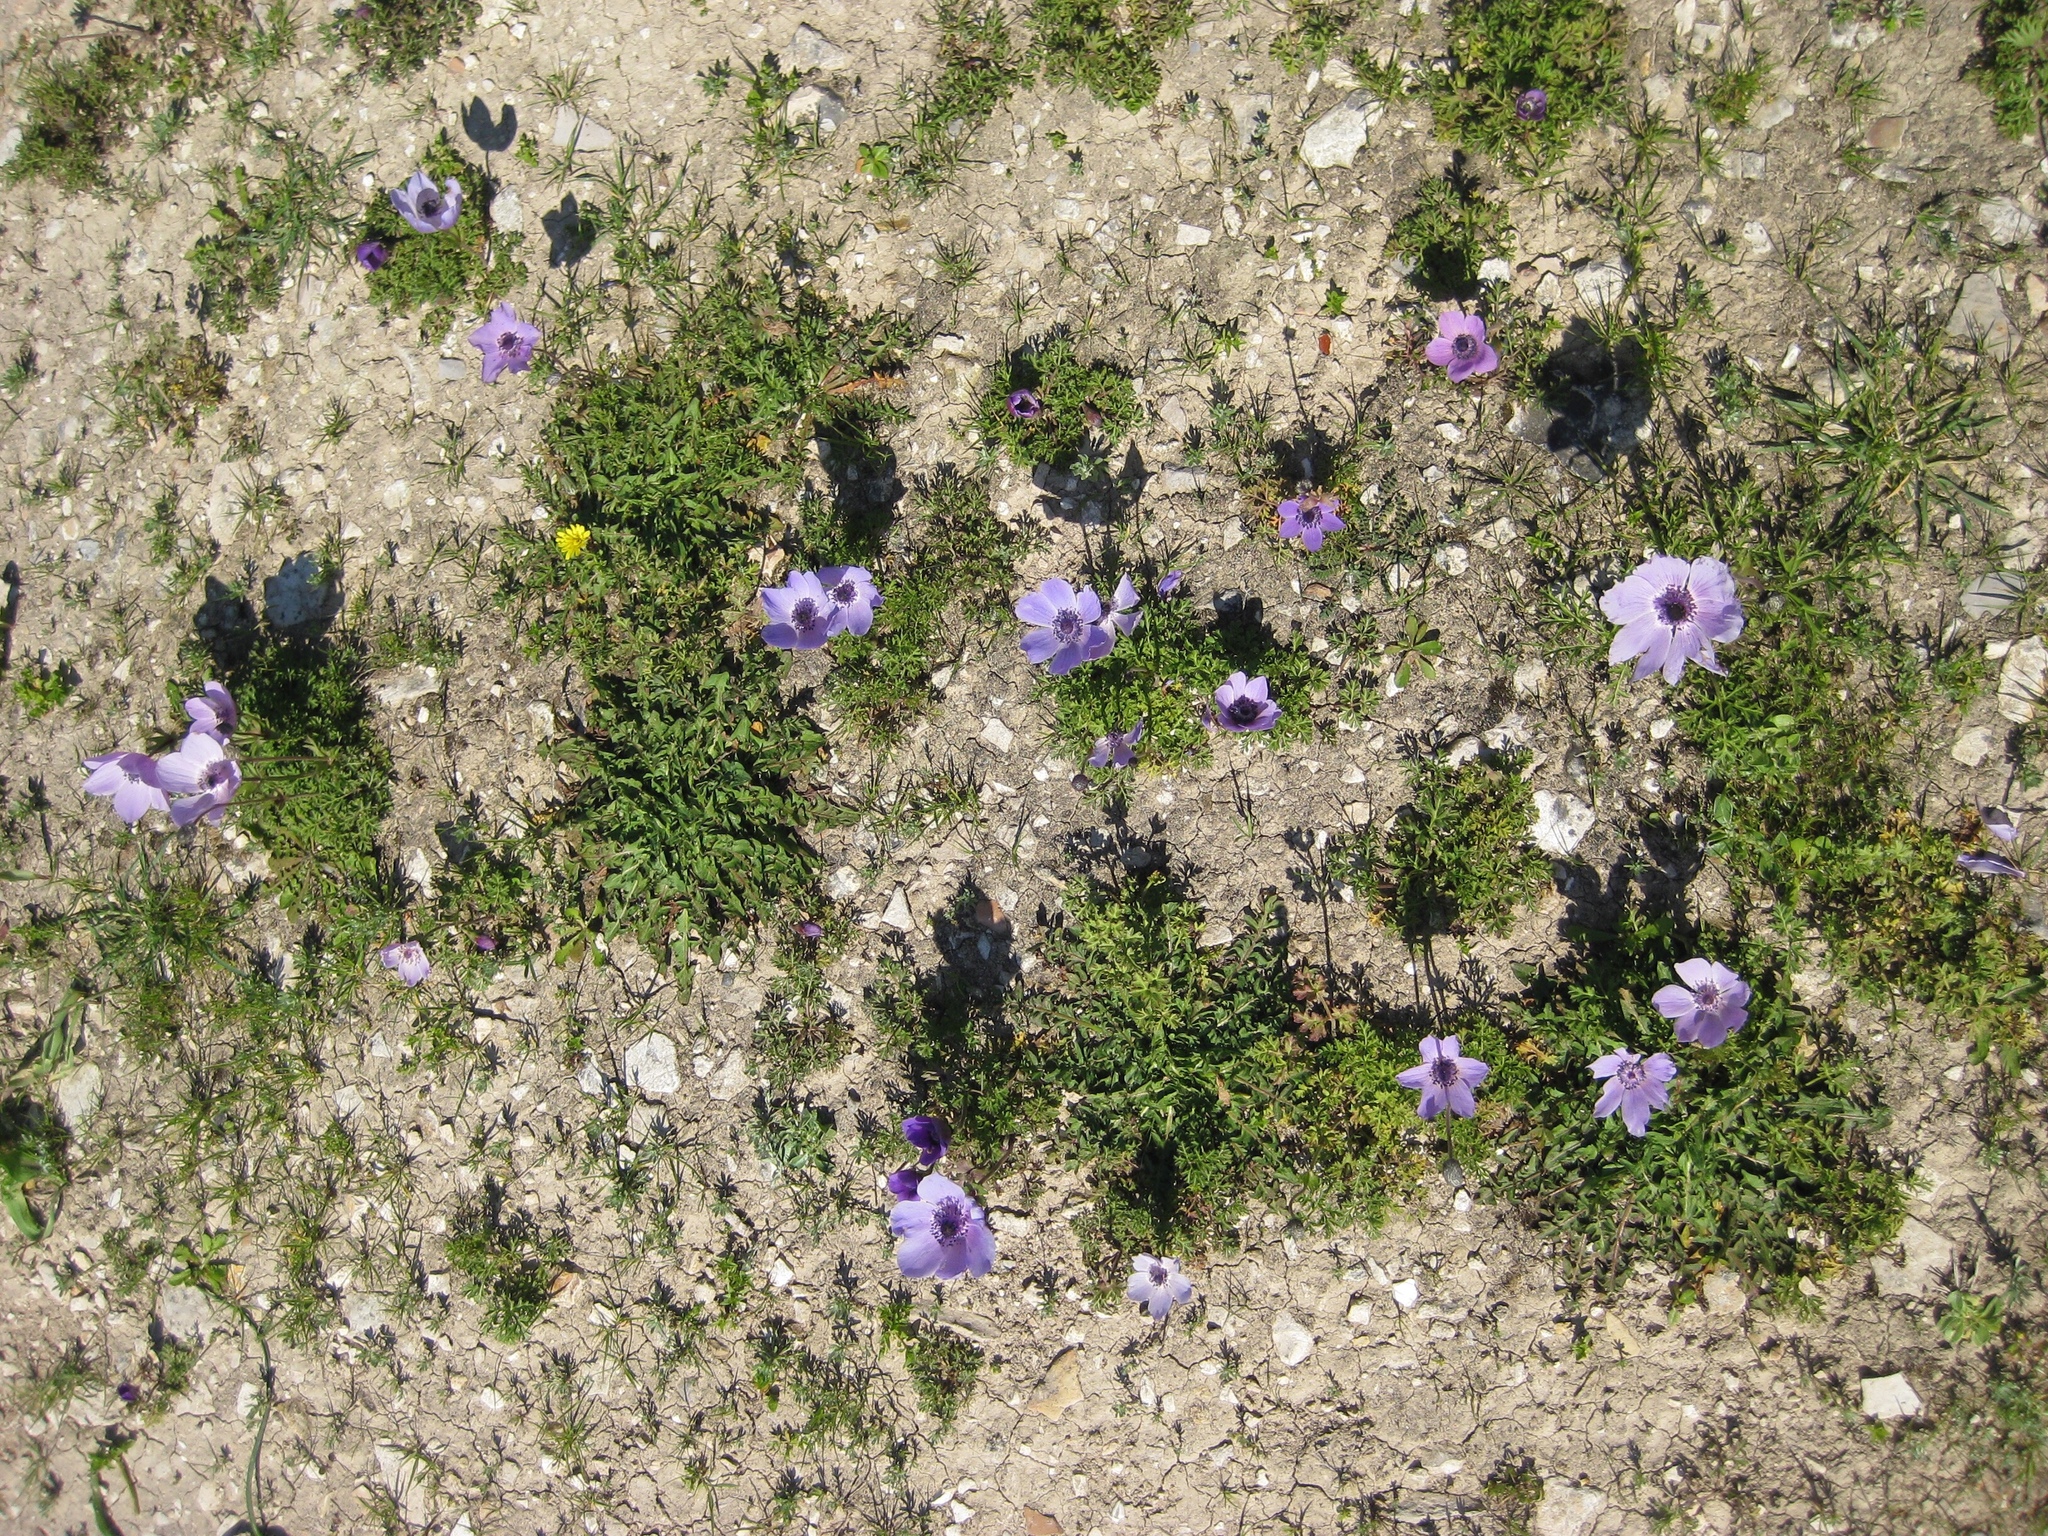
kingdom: Plantae
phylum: Tracheophyta
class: Magnoliopsida
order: Ranunculales
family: Ranunculaceae
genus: Anemone
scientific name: Anemone coronaria
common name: Poppy anemone
